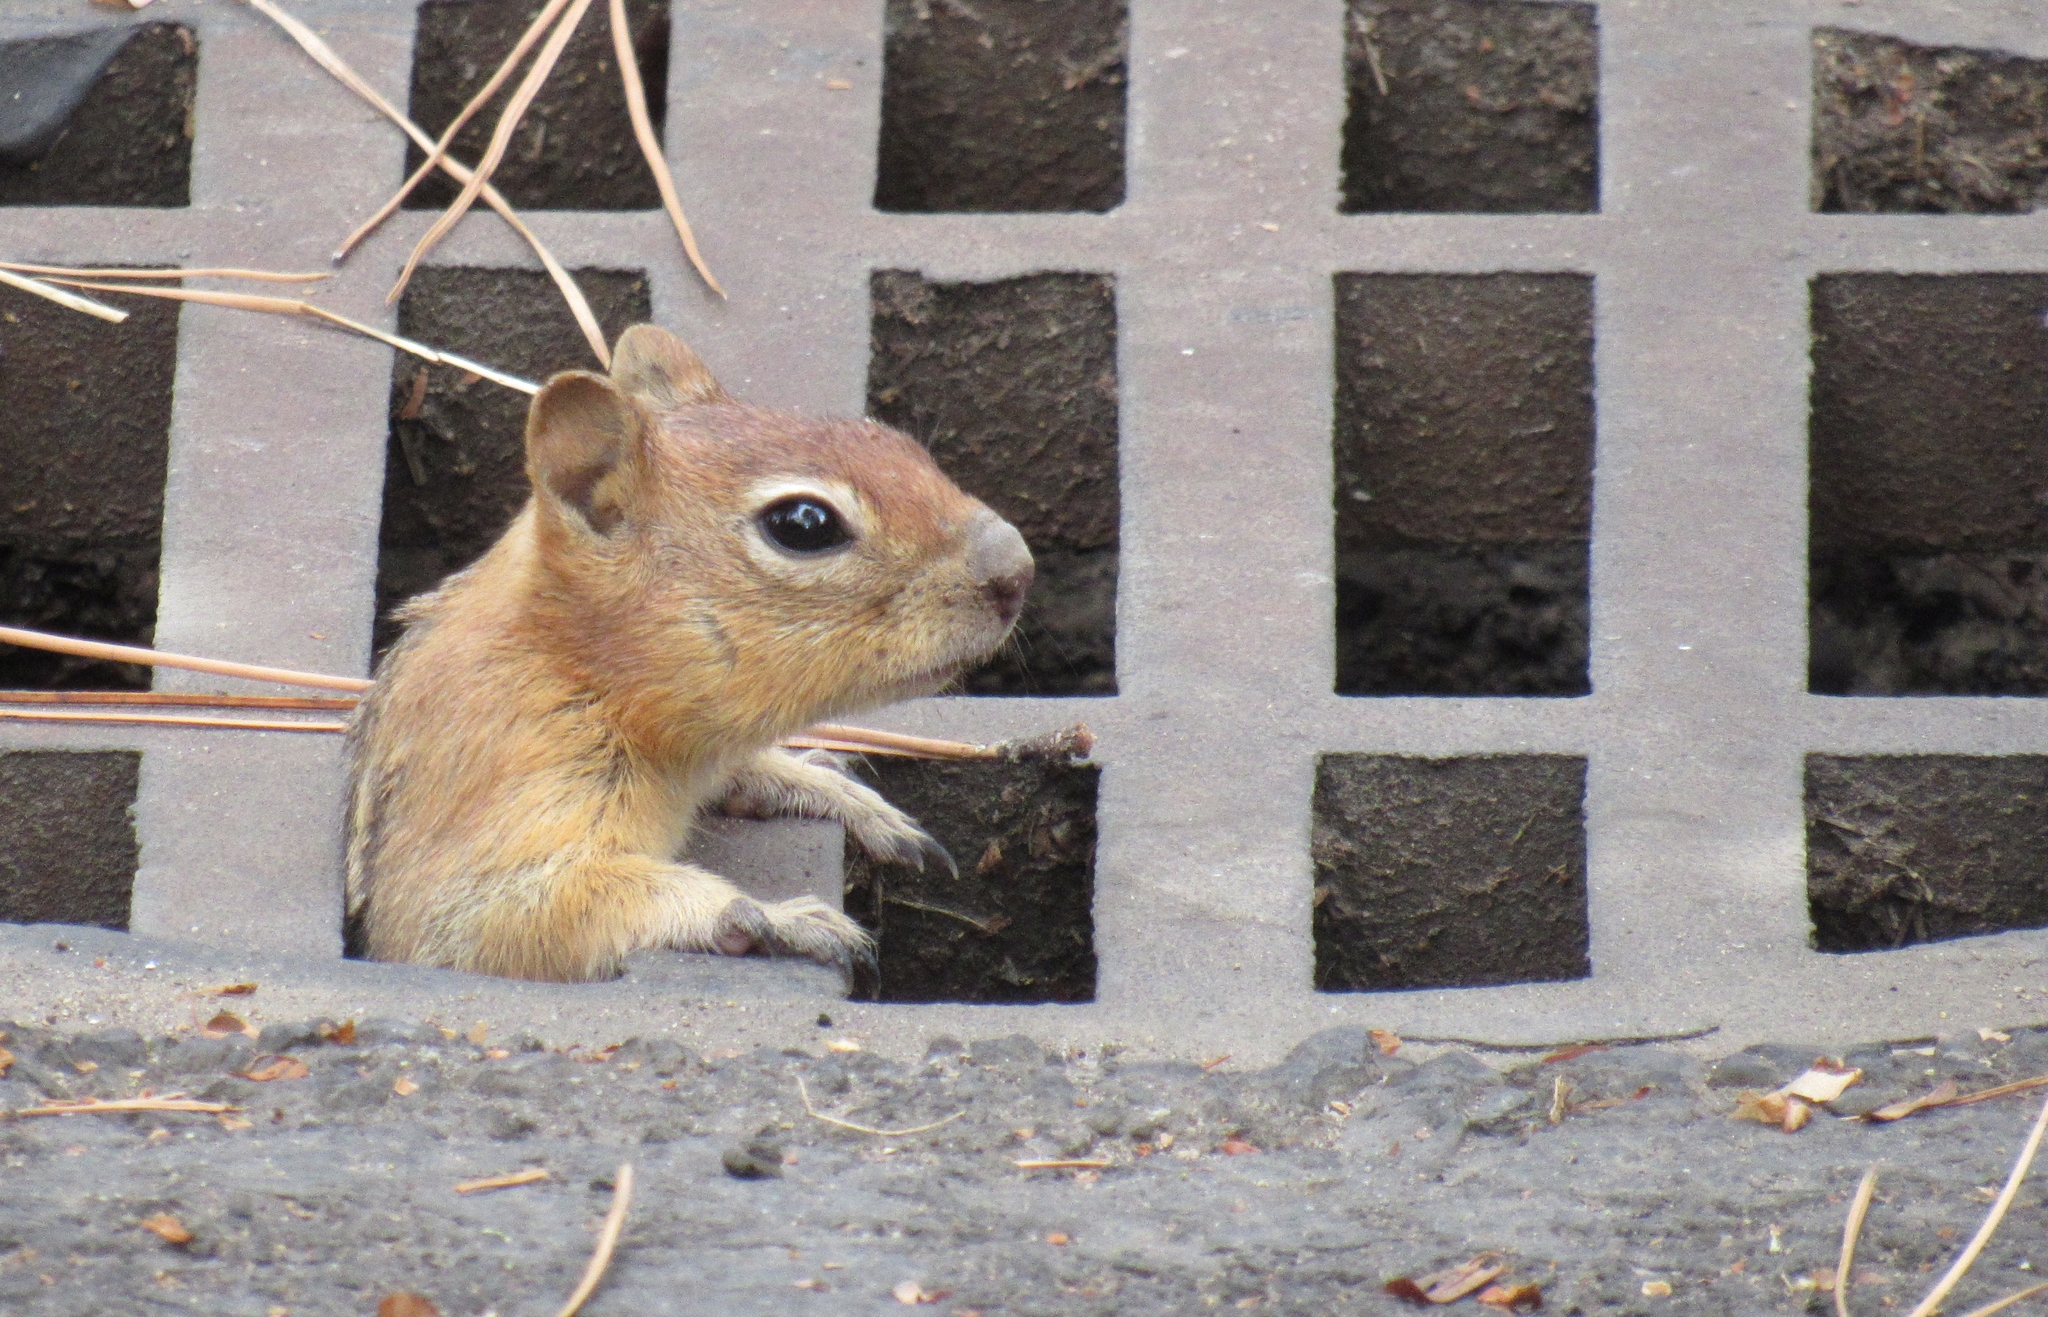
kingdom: Animalia
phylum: Chordata
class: Mammalia
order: Rodentia
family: Sciuridae
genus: Callospermophilus
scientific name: Callospermophilus lateralis
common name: Golden-mantled ground squirrel
